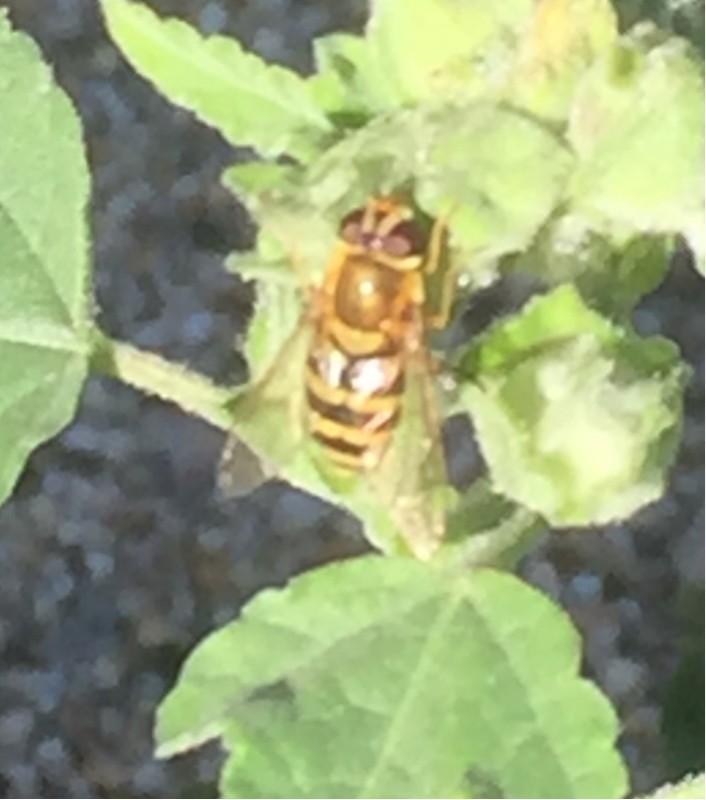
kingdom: Animalia
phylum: Arthropoda
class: Insecta
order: Diptera
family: Syrphidae
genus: Syrphus
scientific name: Syrphus
